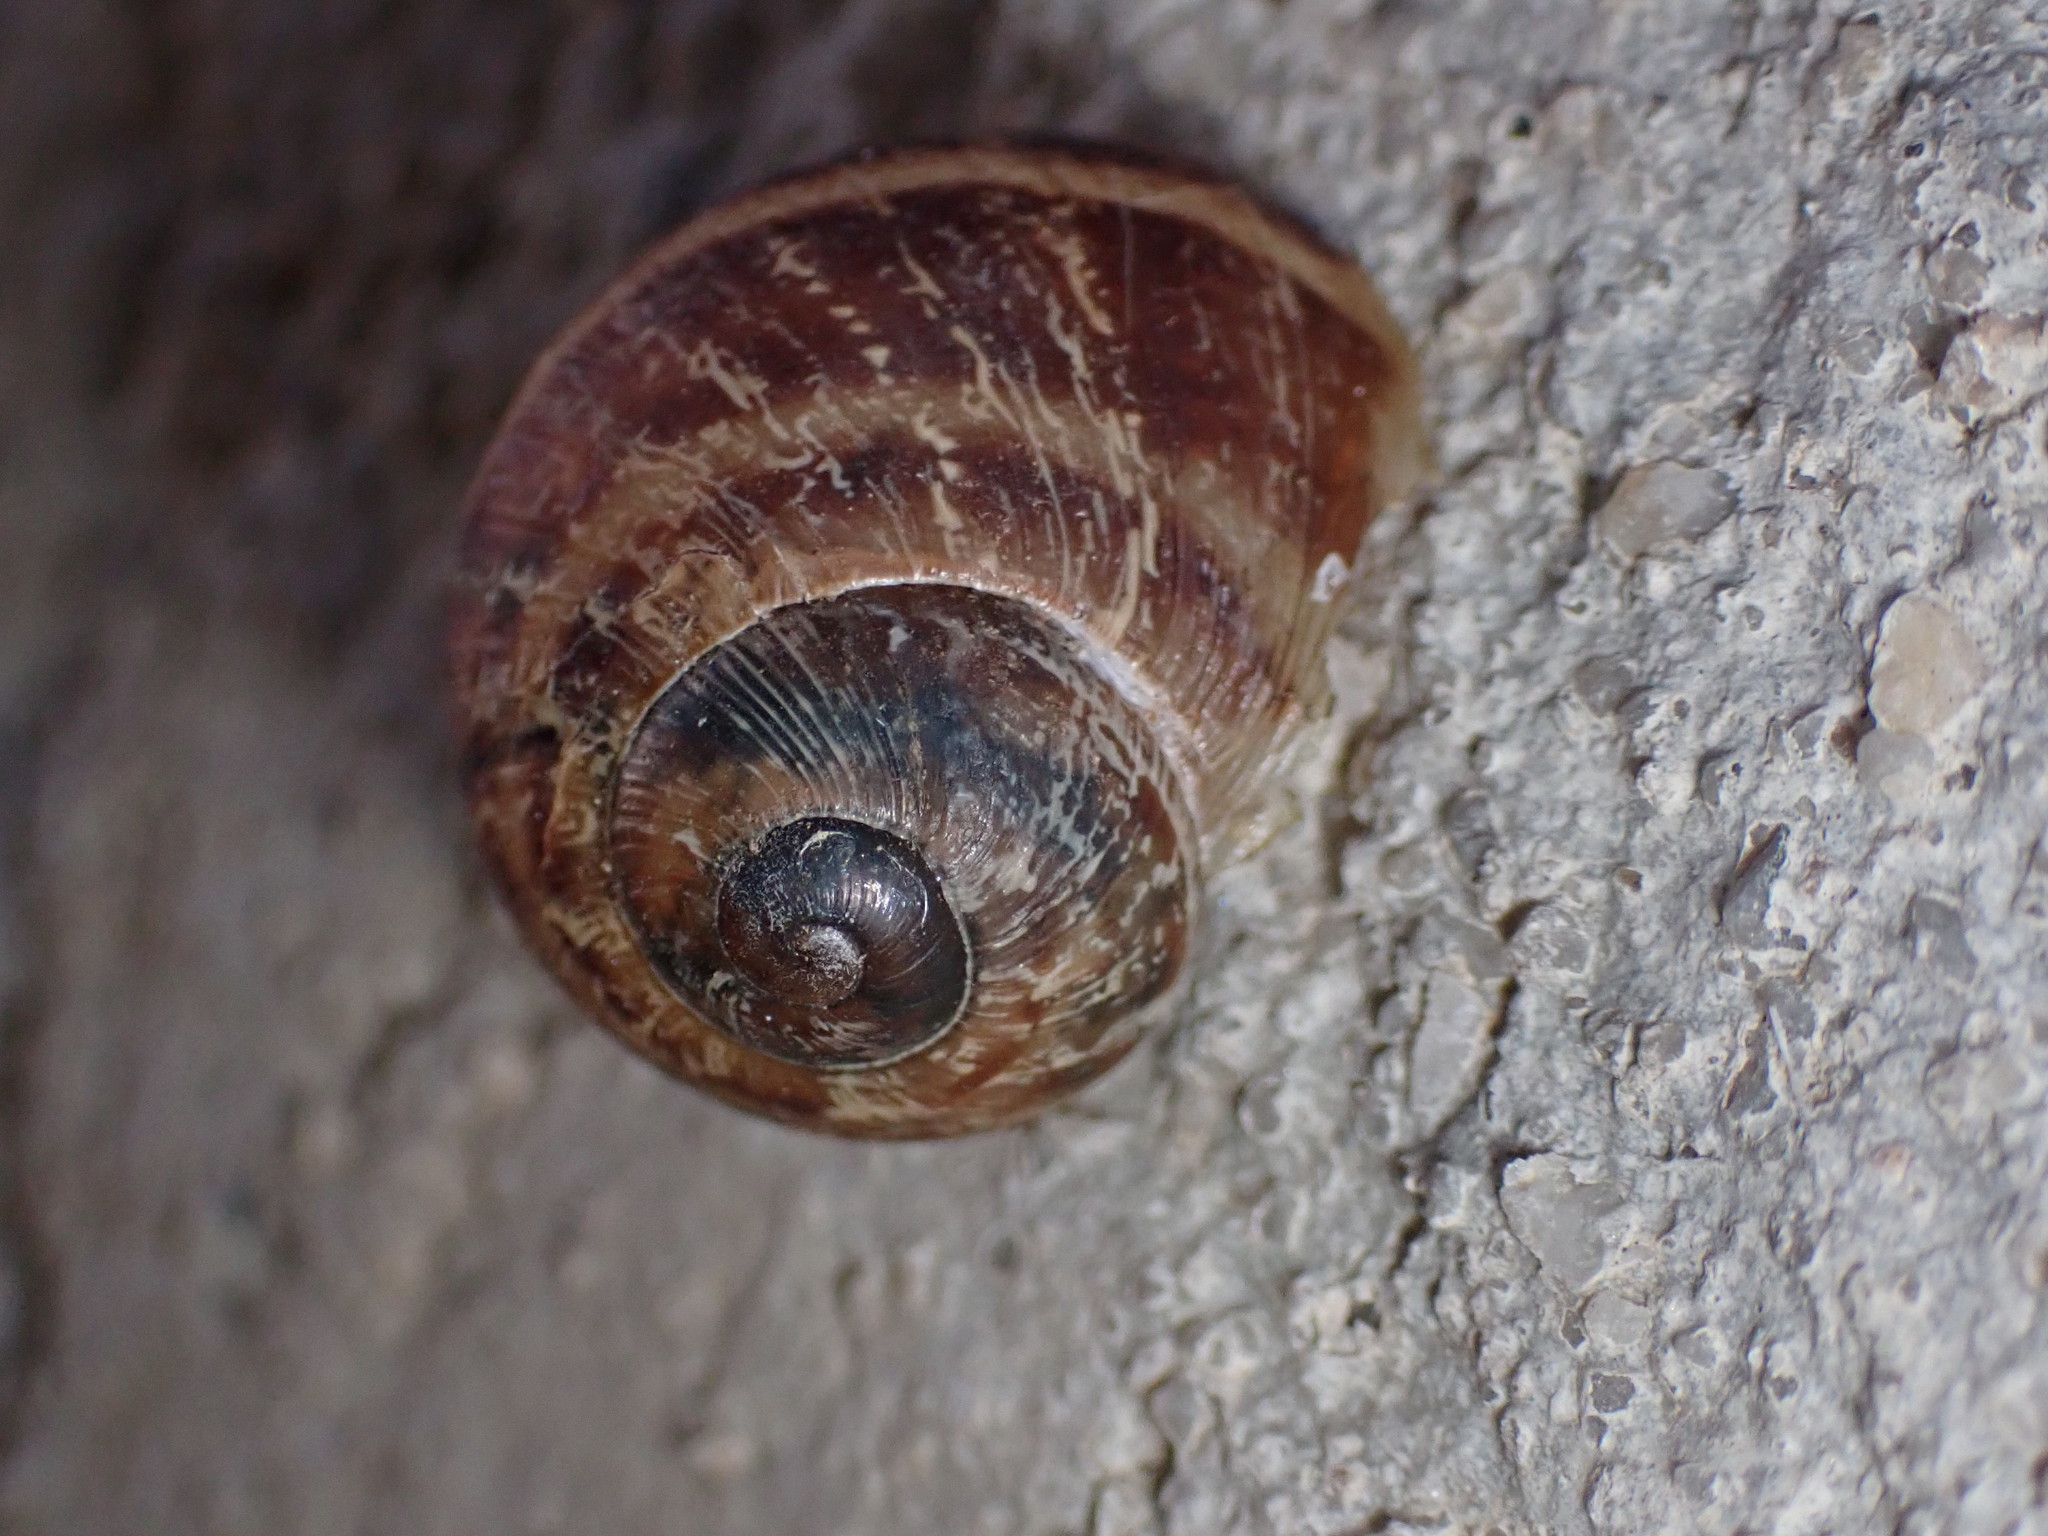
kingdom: Animalia
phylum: Mollusca
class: Gastropoda
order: Stylommatophora
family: Helicidae
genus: Cornu
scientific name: Cornu aspersum
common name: Brown garden snail
